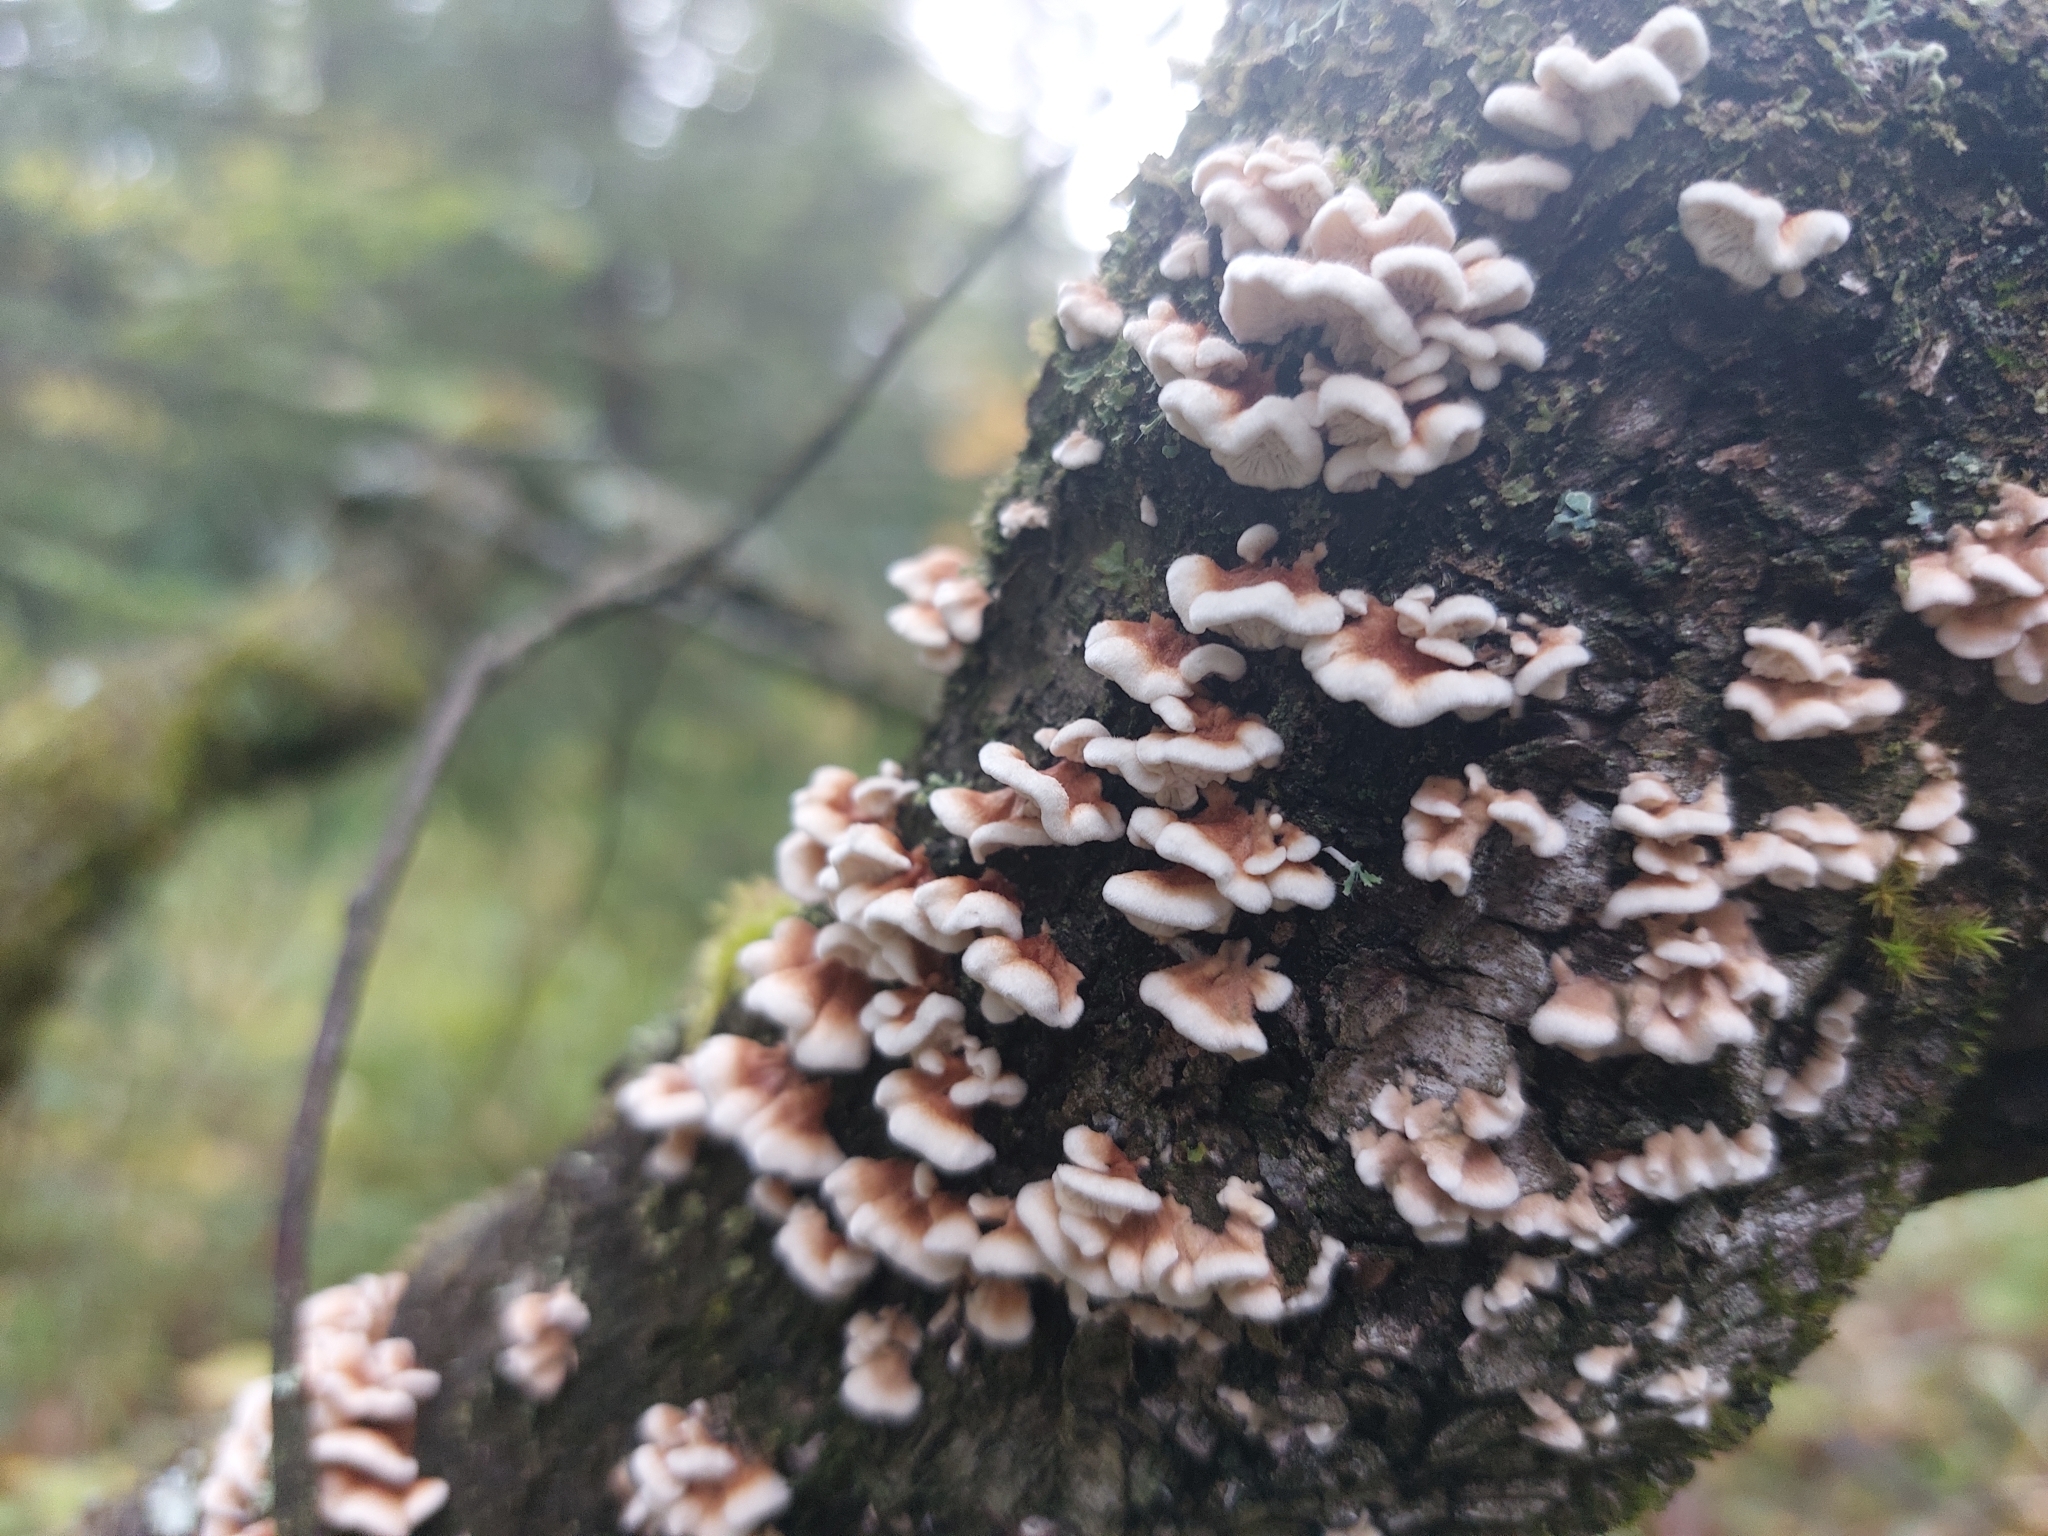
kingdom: Fungi
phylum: Basidiomycota
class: Agaricomycetes
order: Amylocorticiales
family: Amylocorticiaceae
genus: Plicaturopsis
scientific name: Plicaturopsis crispa
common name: Crimped gill
